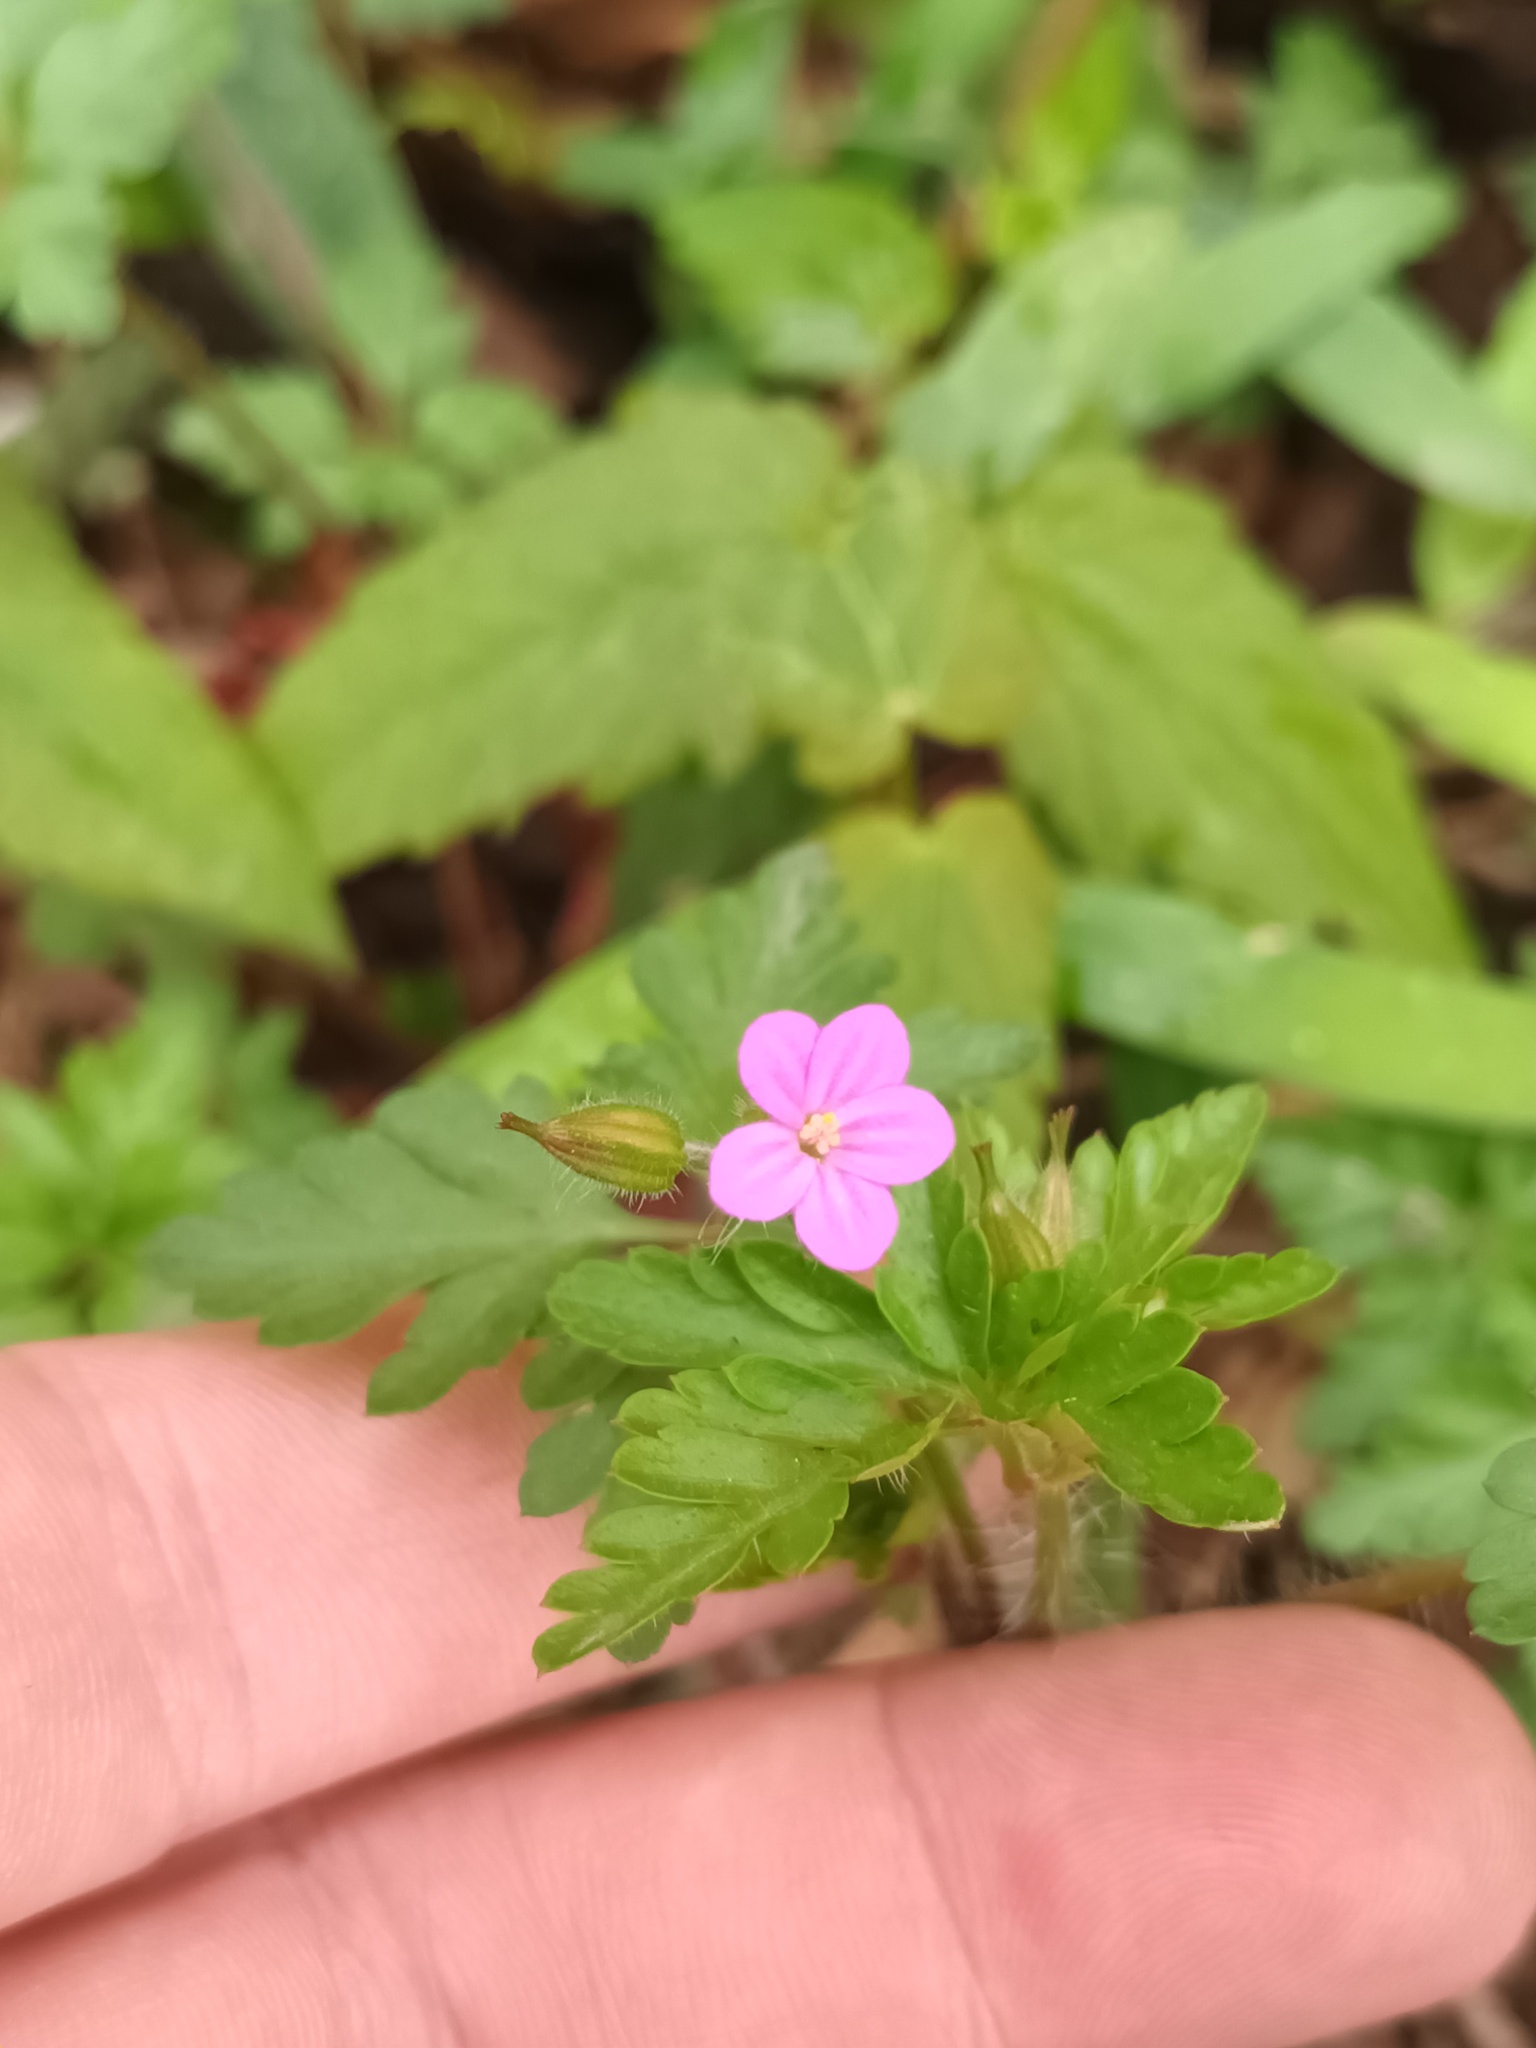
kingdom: Plantae
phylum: Tracheophyta
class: Magnoliopsida
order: Geraniales
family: Geraniaceae
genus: Geranium
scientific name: Geranium purpureum
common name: Little-robin
